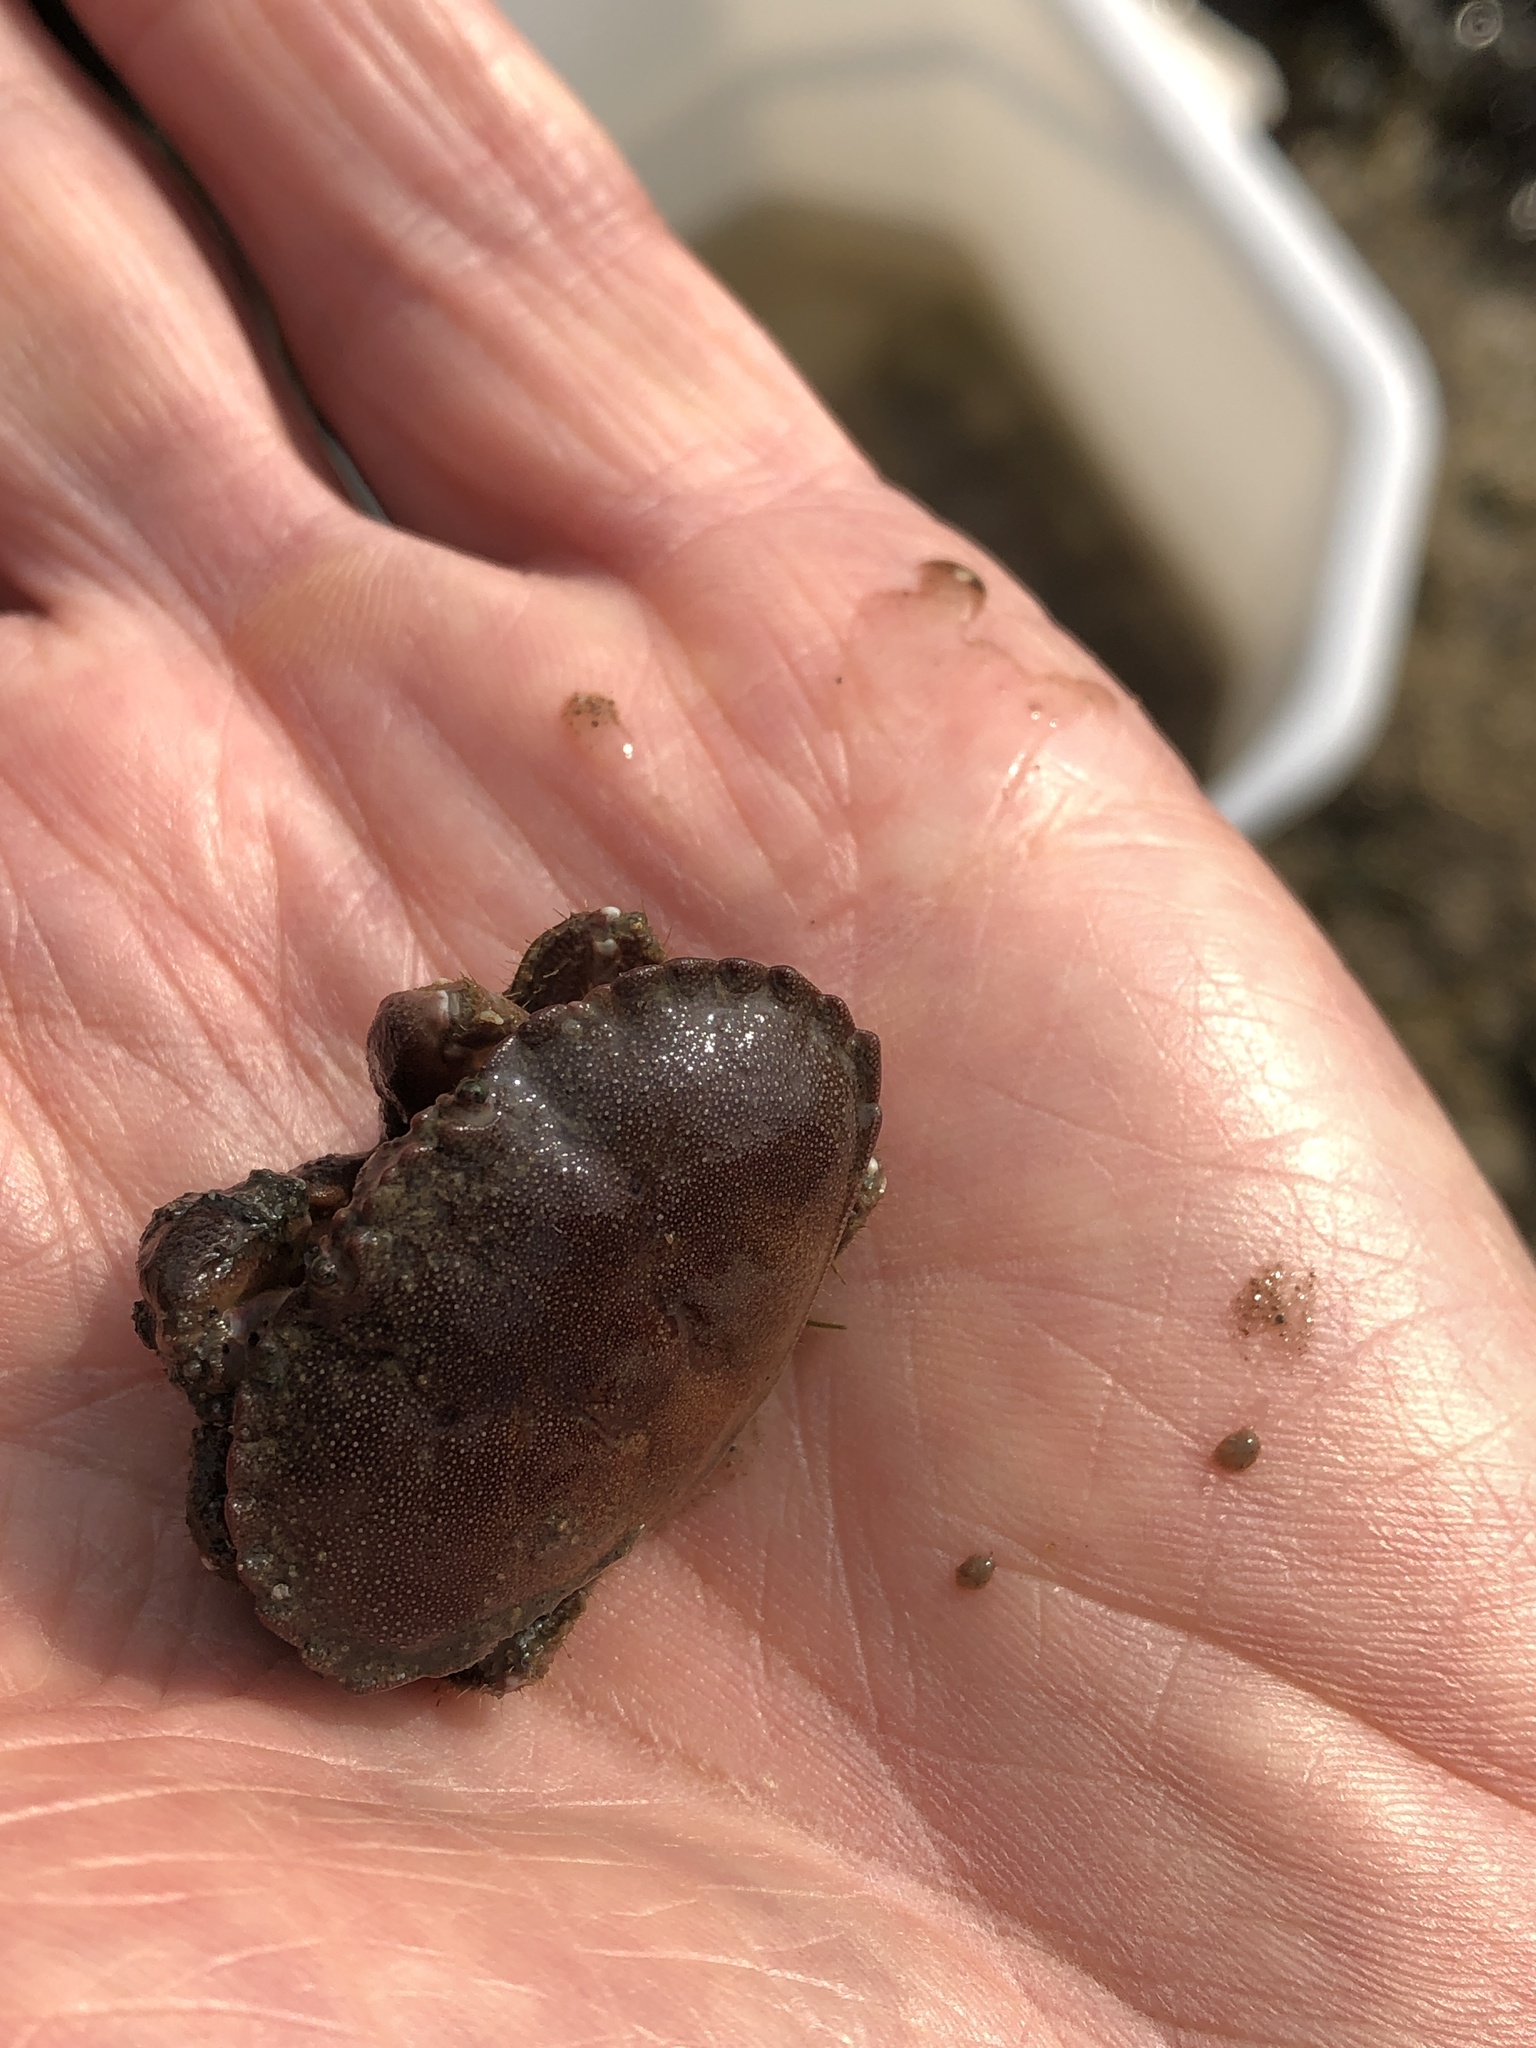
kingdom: Animalia
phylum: Arthropoda
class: Malacostraca
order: Decapoda
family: Cancridae
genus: Cancer
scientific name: Cancer pagurus
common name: Edible crab
